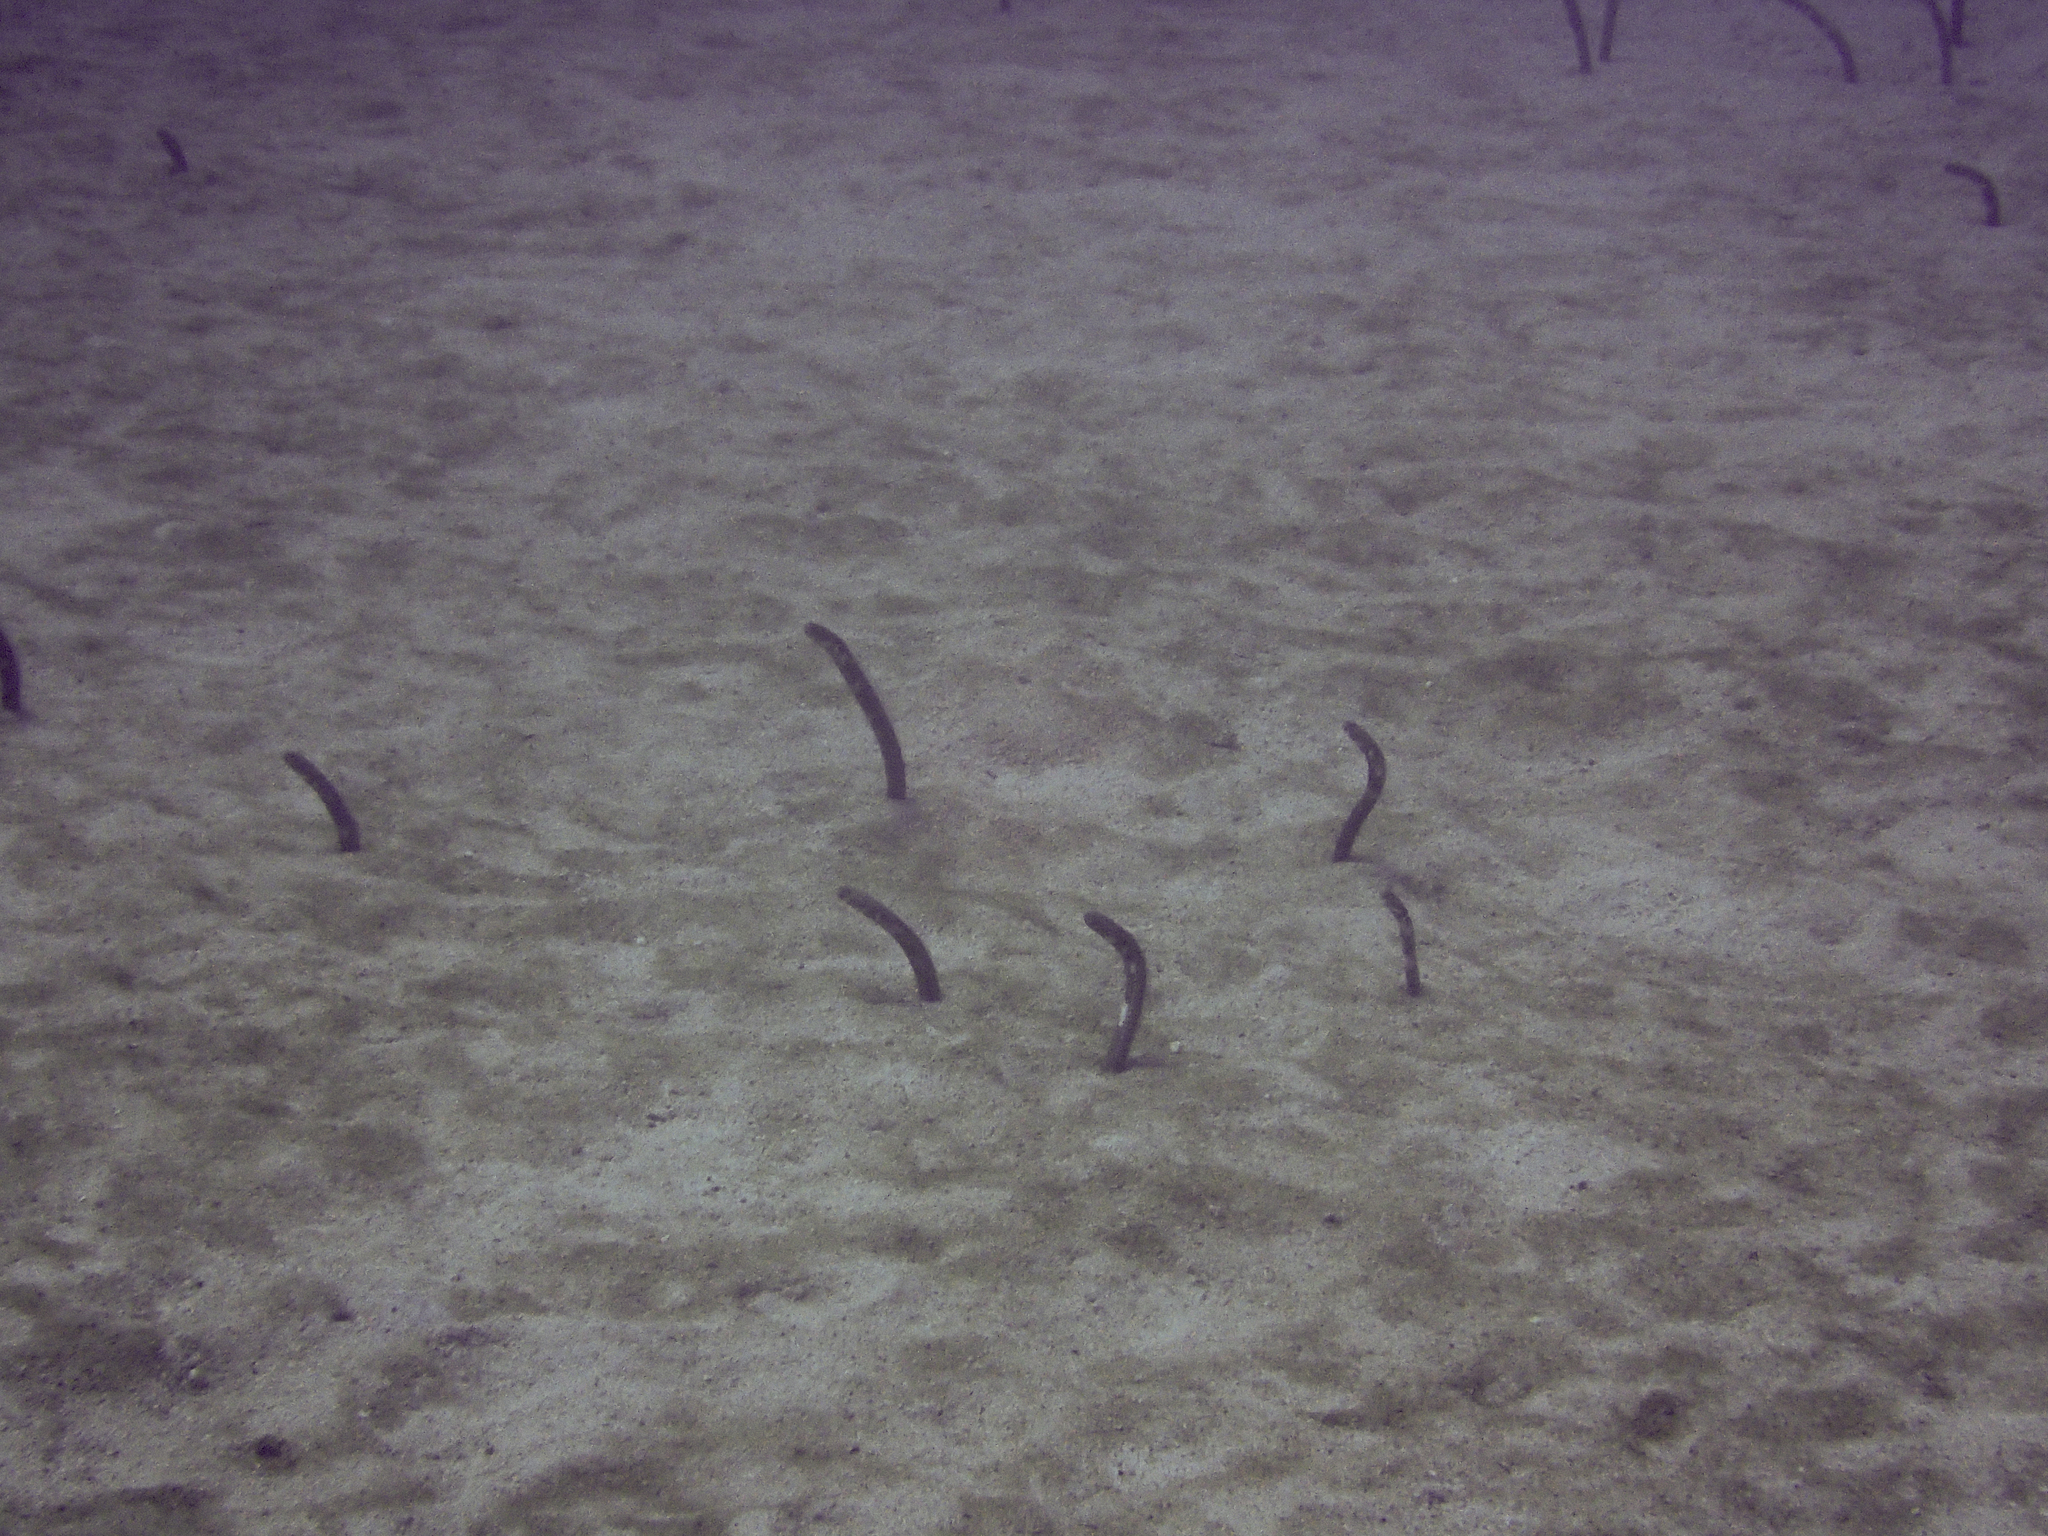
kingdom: Animalia
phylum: Chordata
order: Anguilliformes
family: Congridae
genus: Heteroconger
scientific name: Heteroconger klausewitzi
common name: Galapagos garden eel
